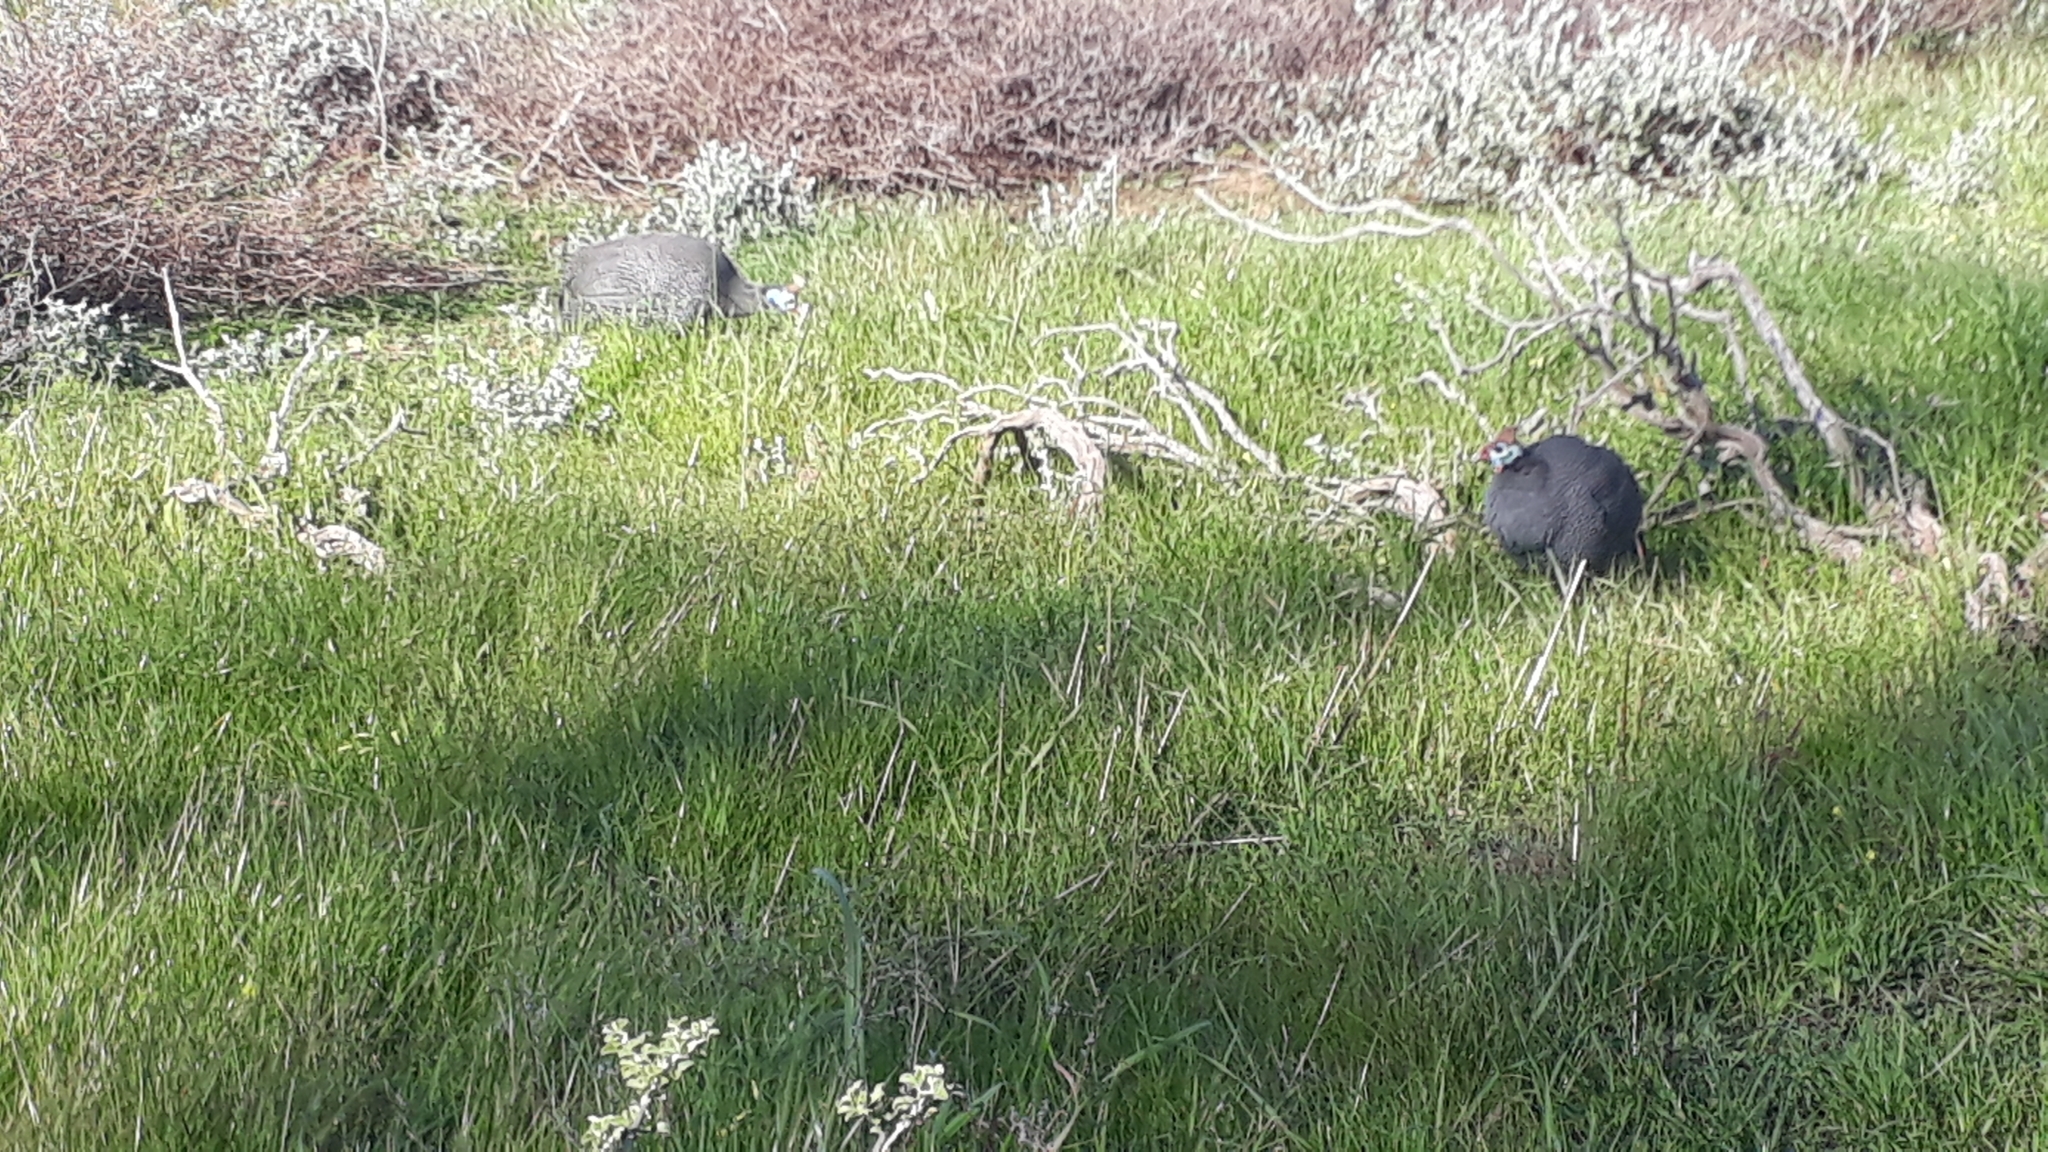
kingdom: Animalia
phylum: Chordata
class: Aves
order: Galliformes
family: Numididae
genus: Numida
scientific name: Numida meleagris
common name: Helmeted guineafowl
